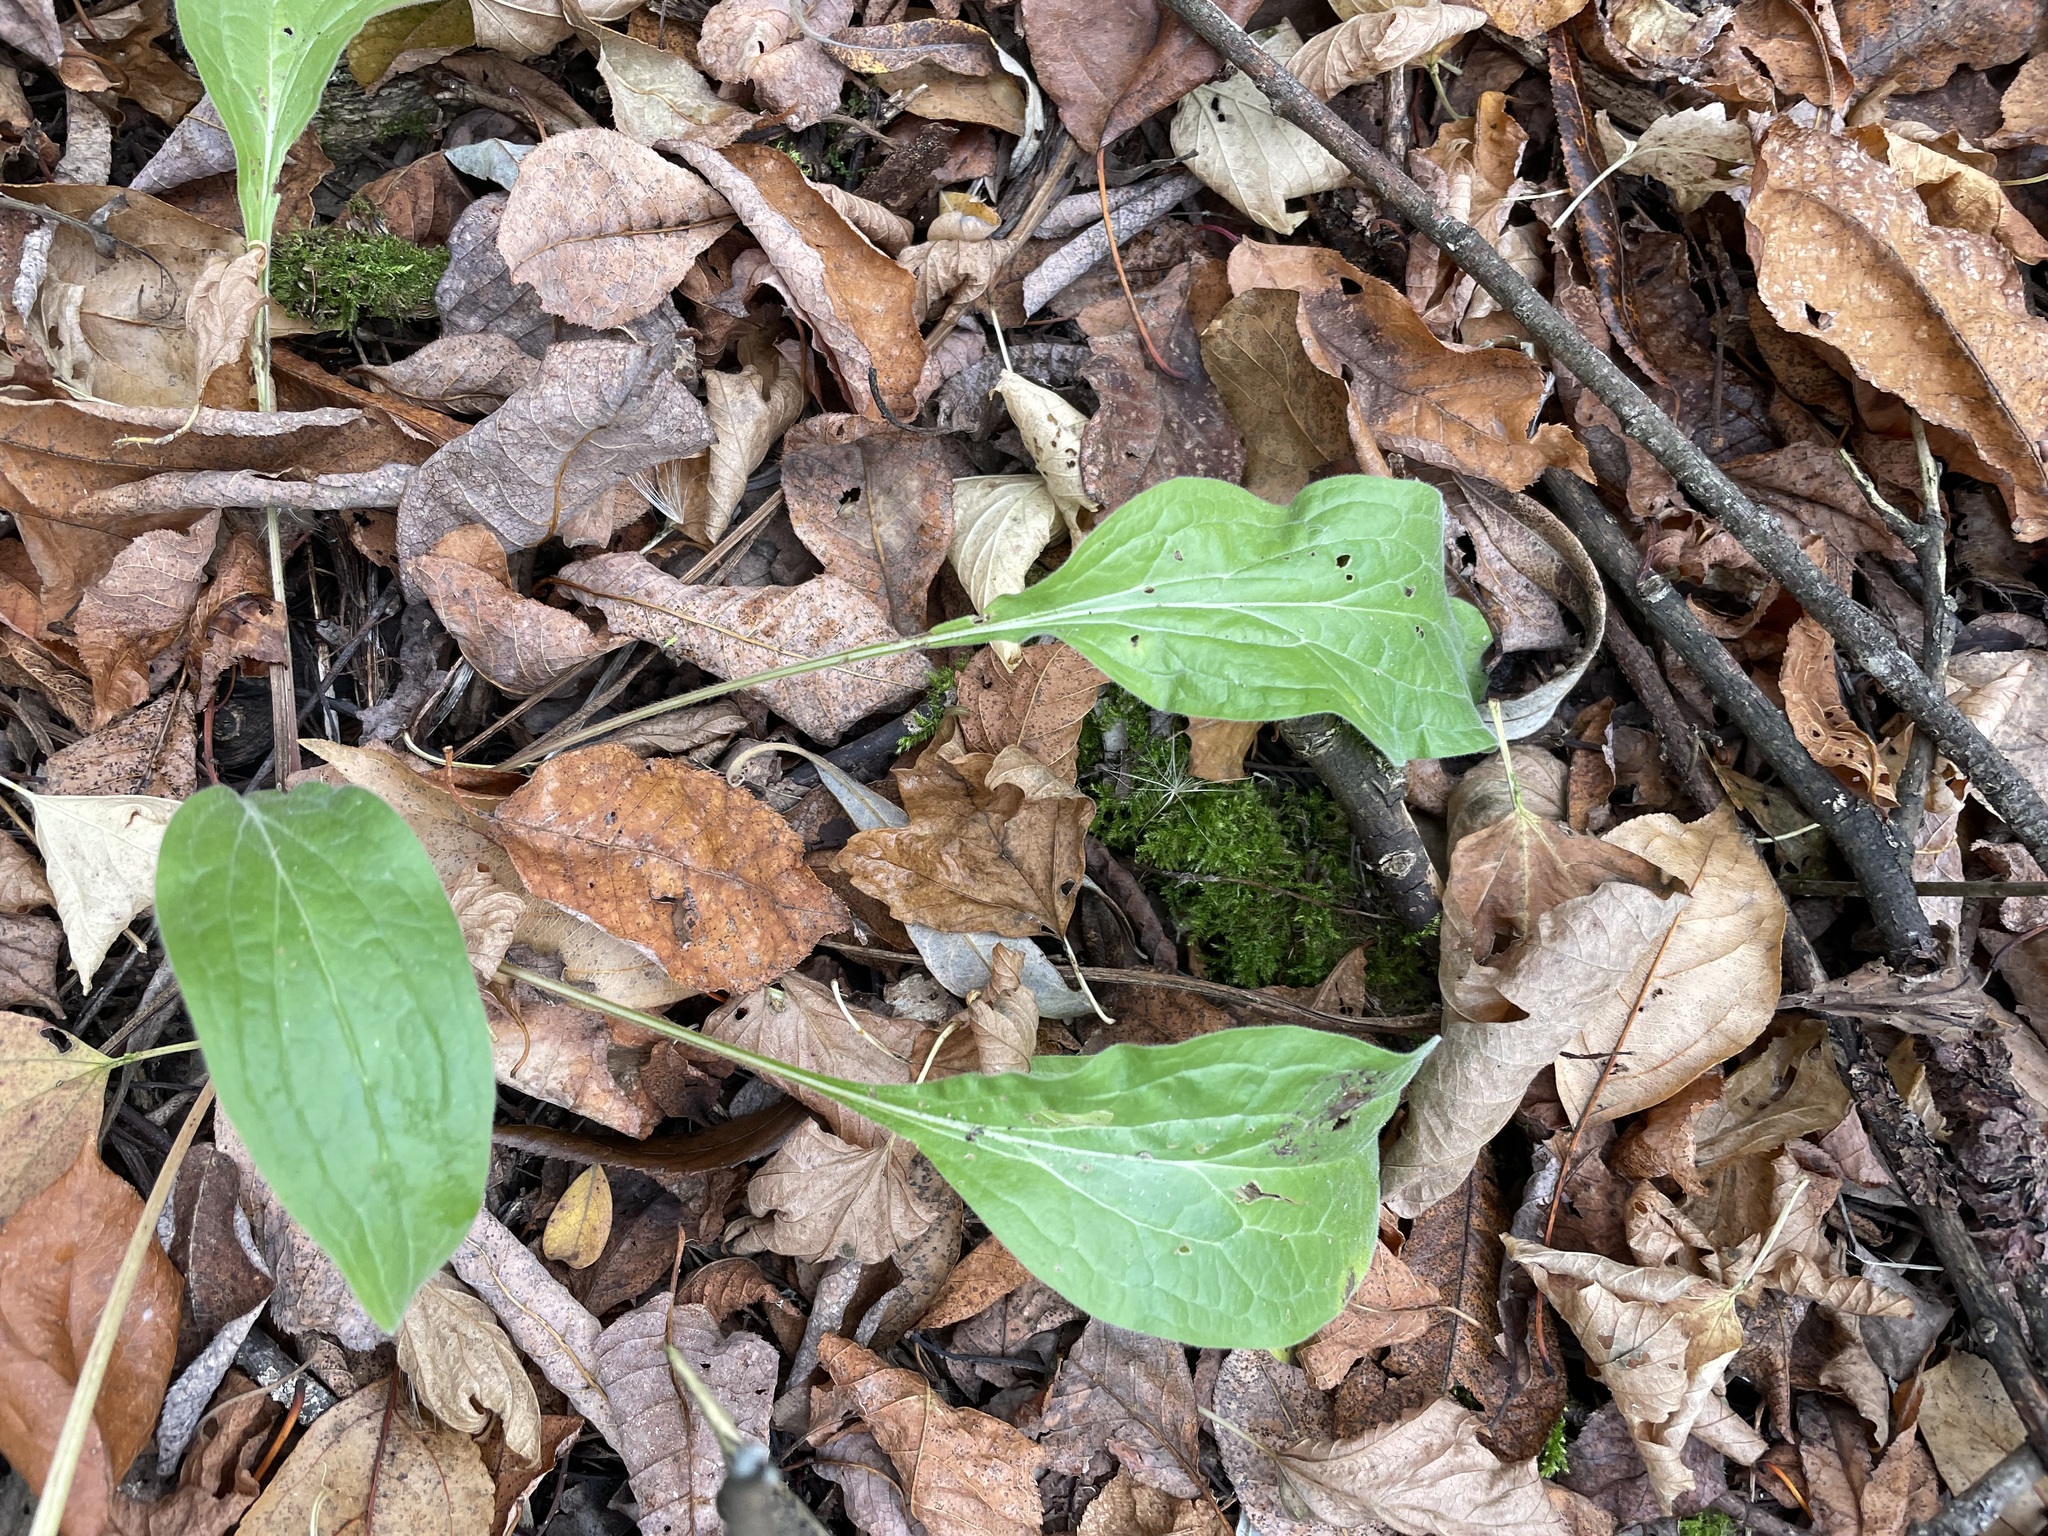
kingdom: Plantae
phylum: Tracheophyta
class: Magnoliopsida
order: Boraginales
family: Boraginaceae
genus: Cynoglossum
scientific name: Cynoglossum officinale
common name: Hound's-tongue
